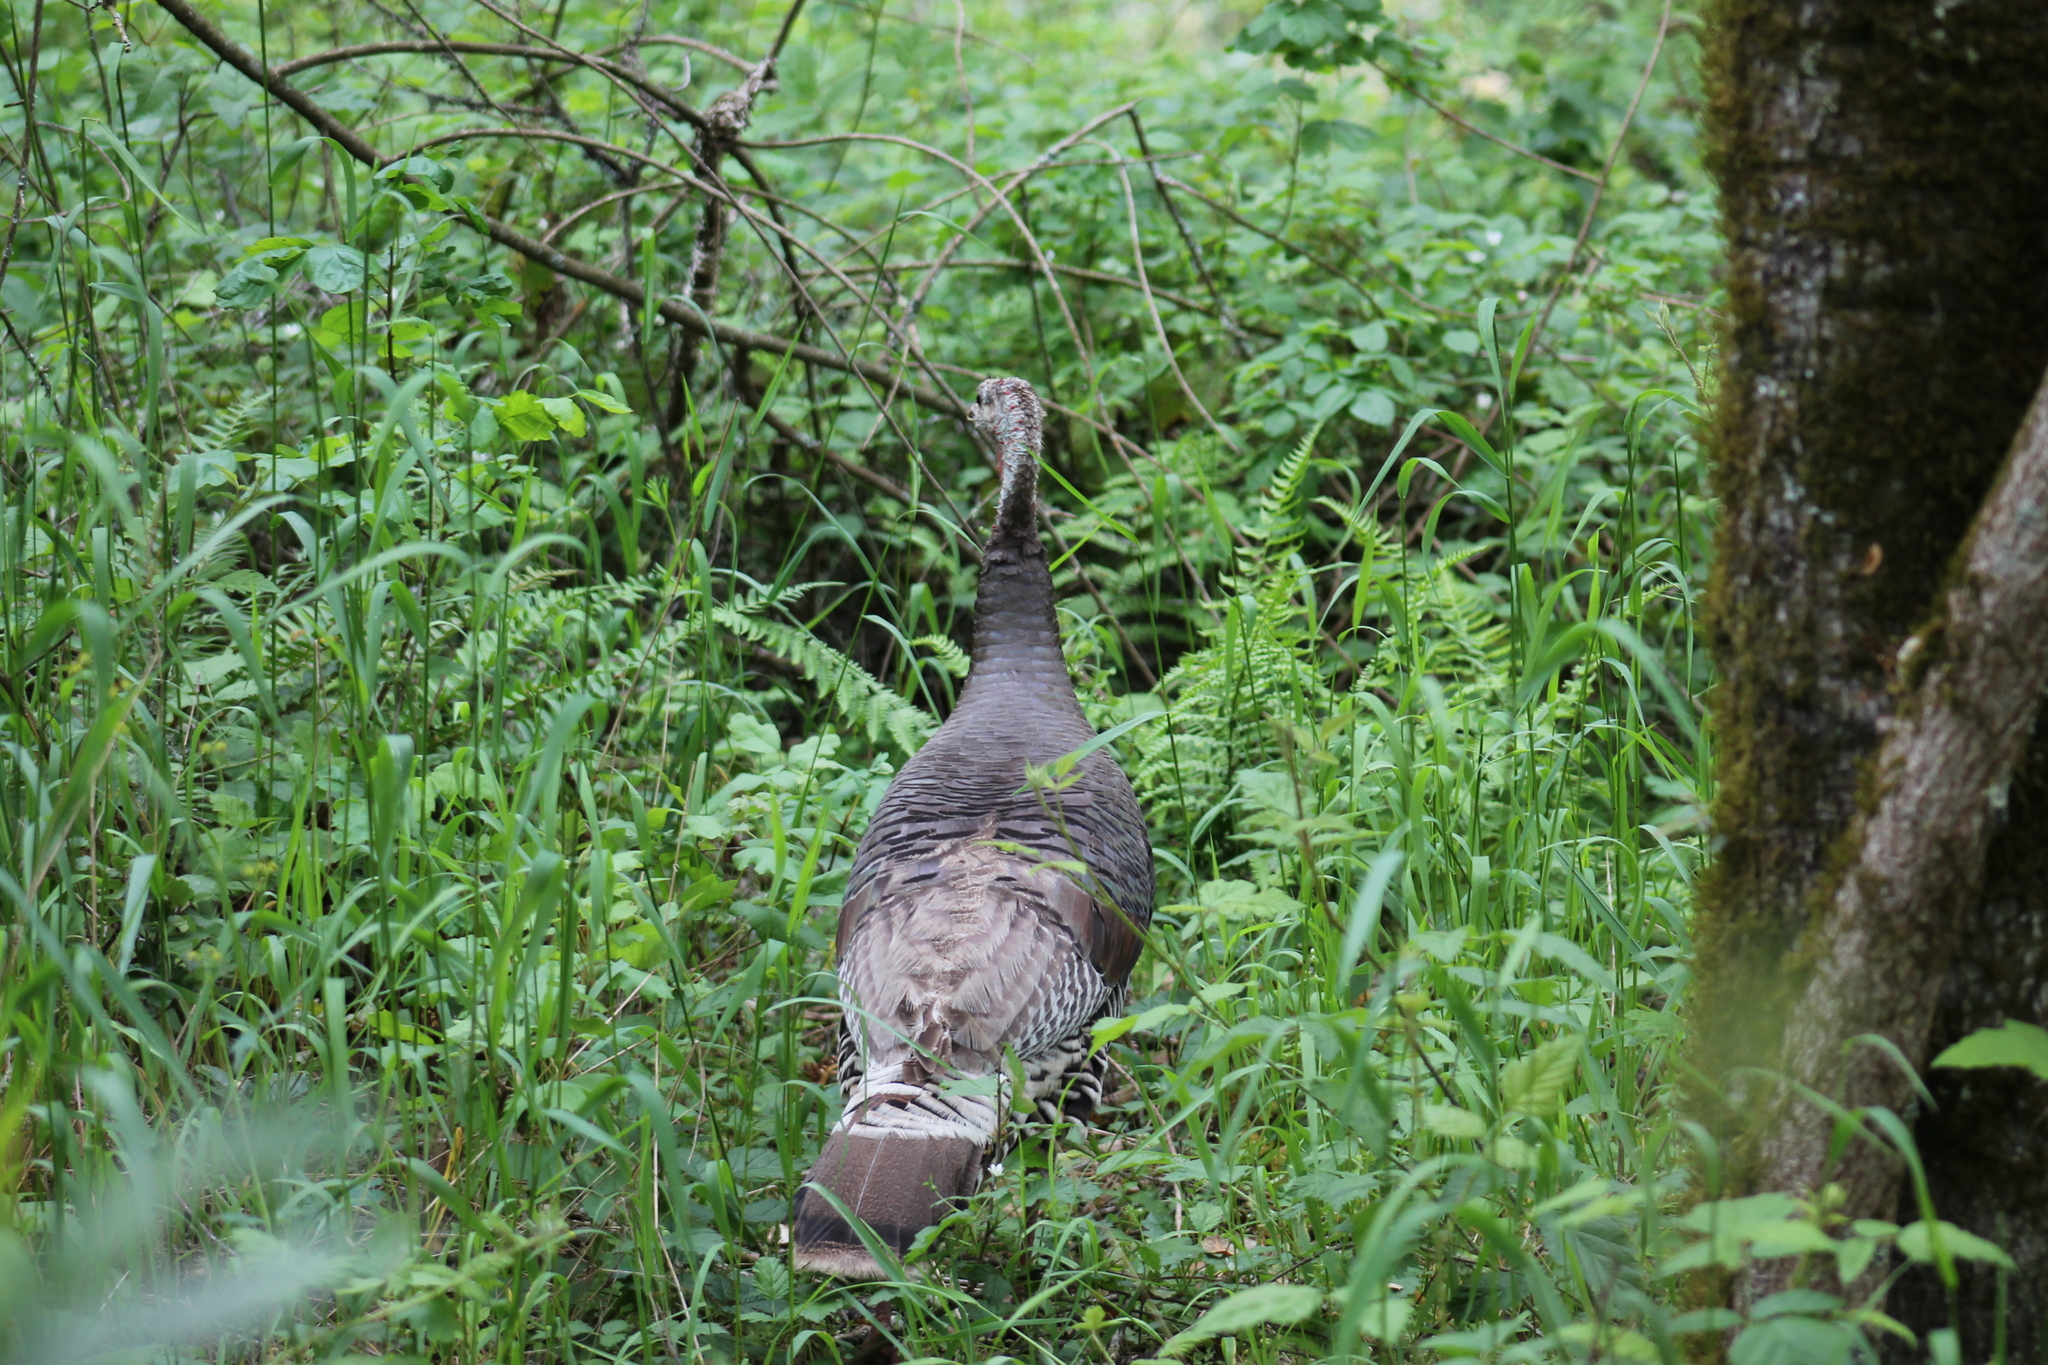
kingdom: Animalia
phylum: Chordata
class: Aves
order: Galliformes
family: Phasianidae
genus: Meleagris
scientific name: Meleagris gallopavo
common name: Wild turkey
